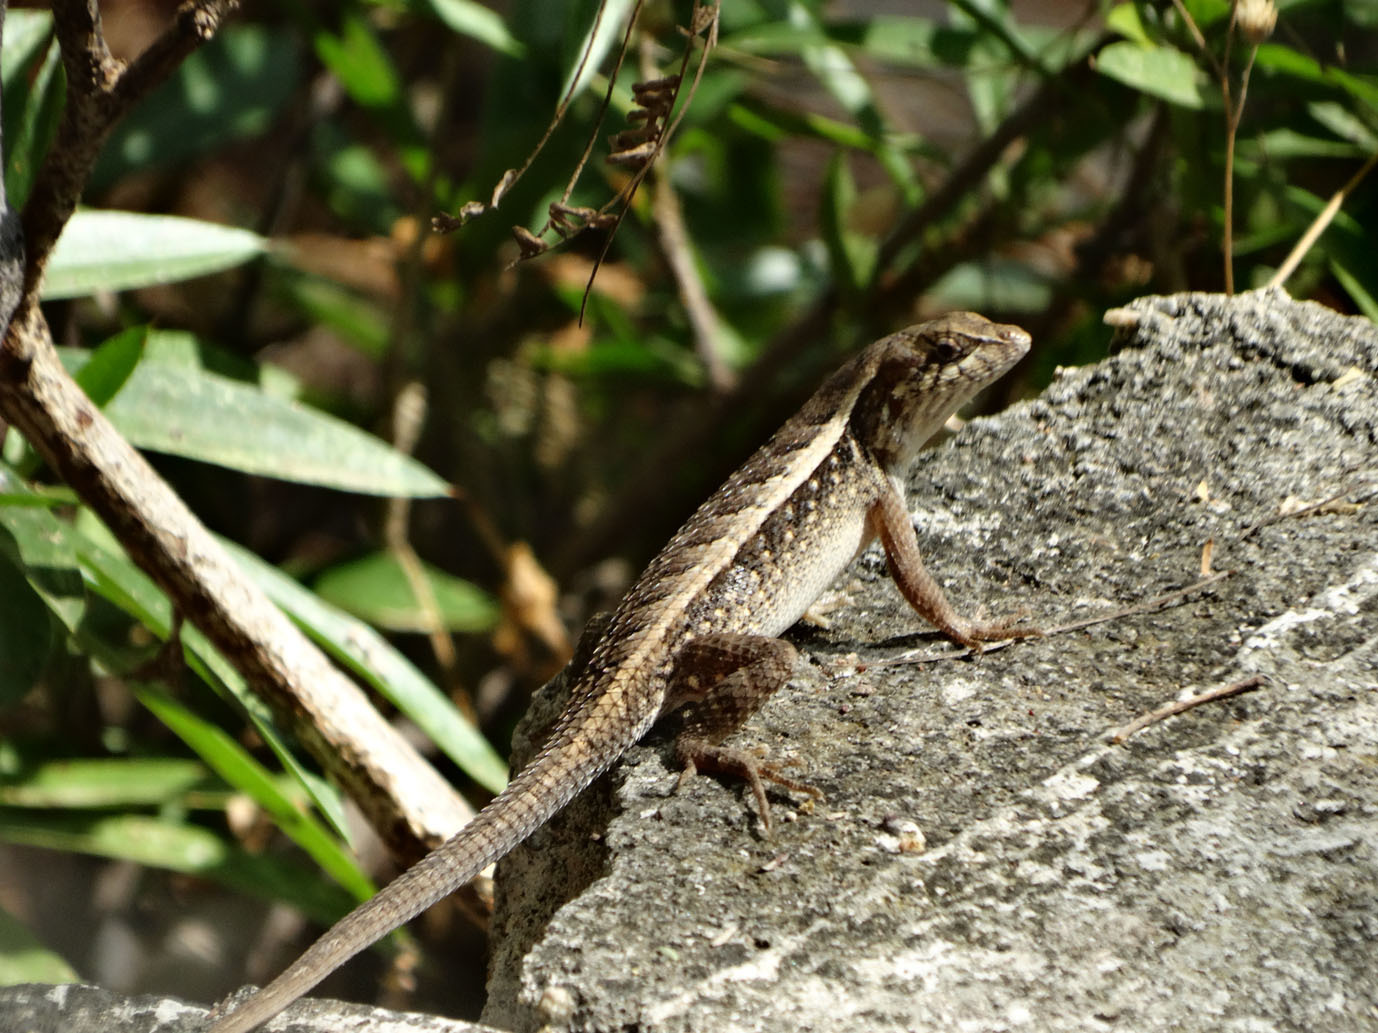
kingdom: Animalia
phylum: Chordata
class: Squamata
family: Phrynosomatidae
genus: Sceloporus
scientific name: Sceloporus siniferus
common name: Longtail spiny lizard
